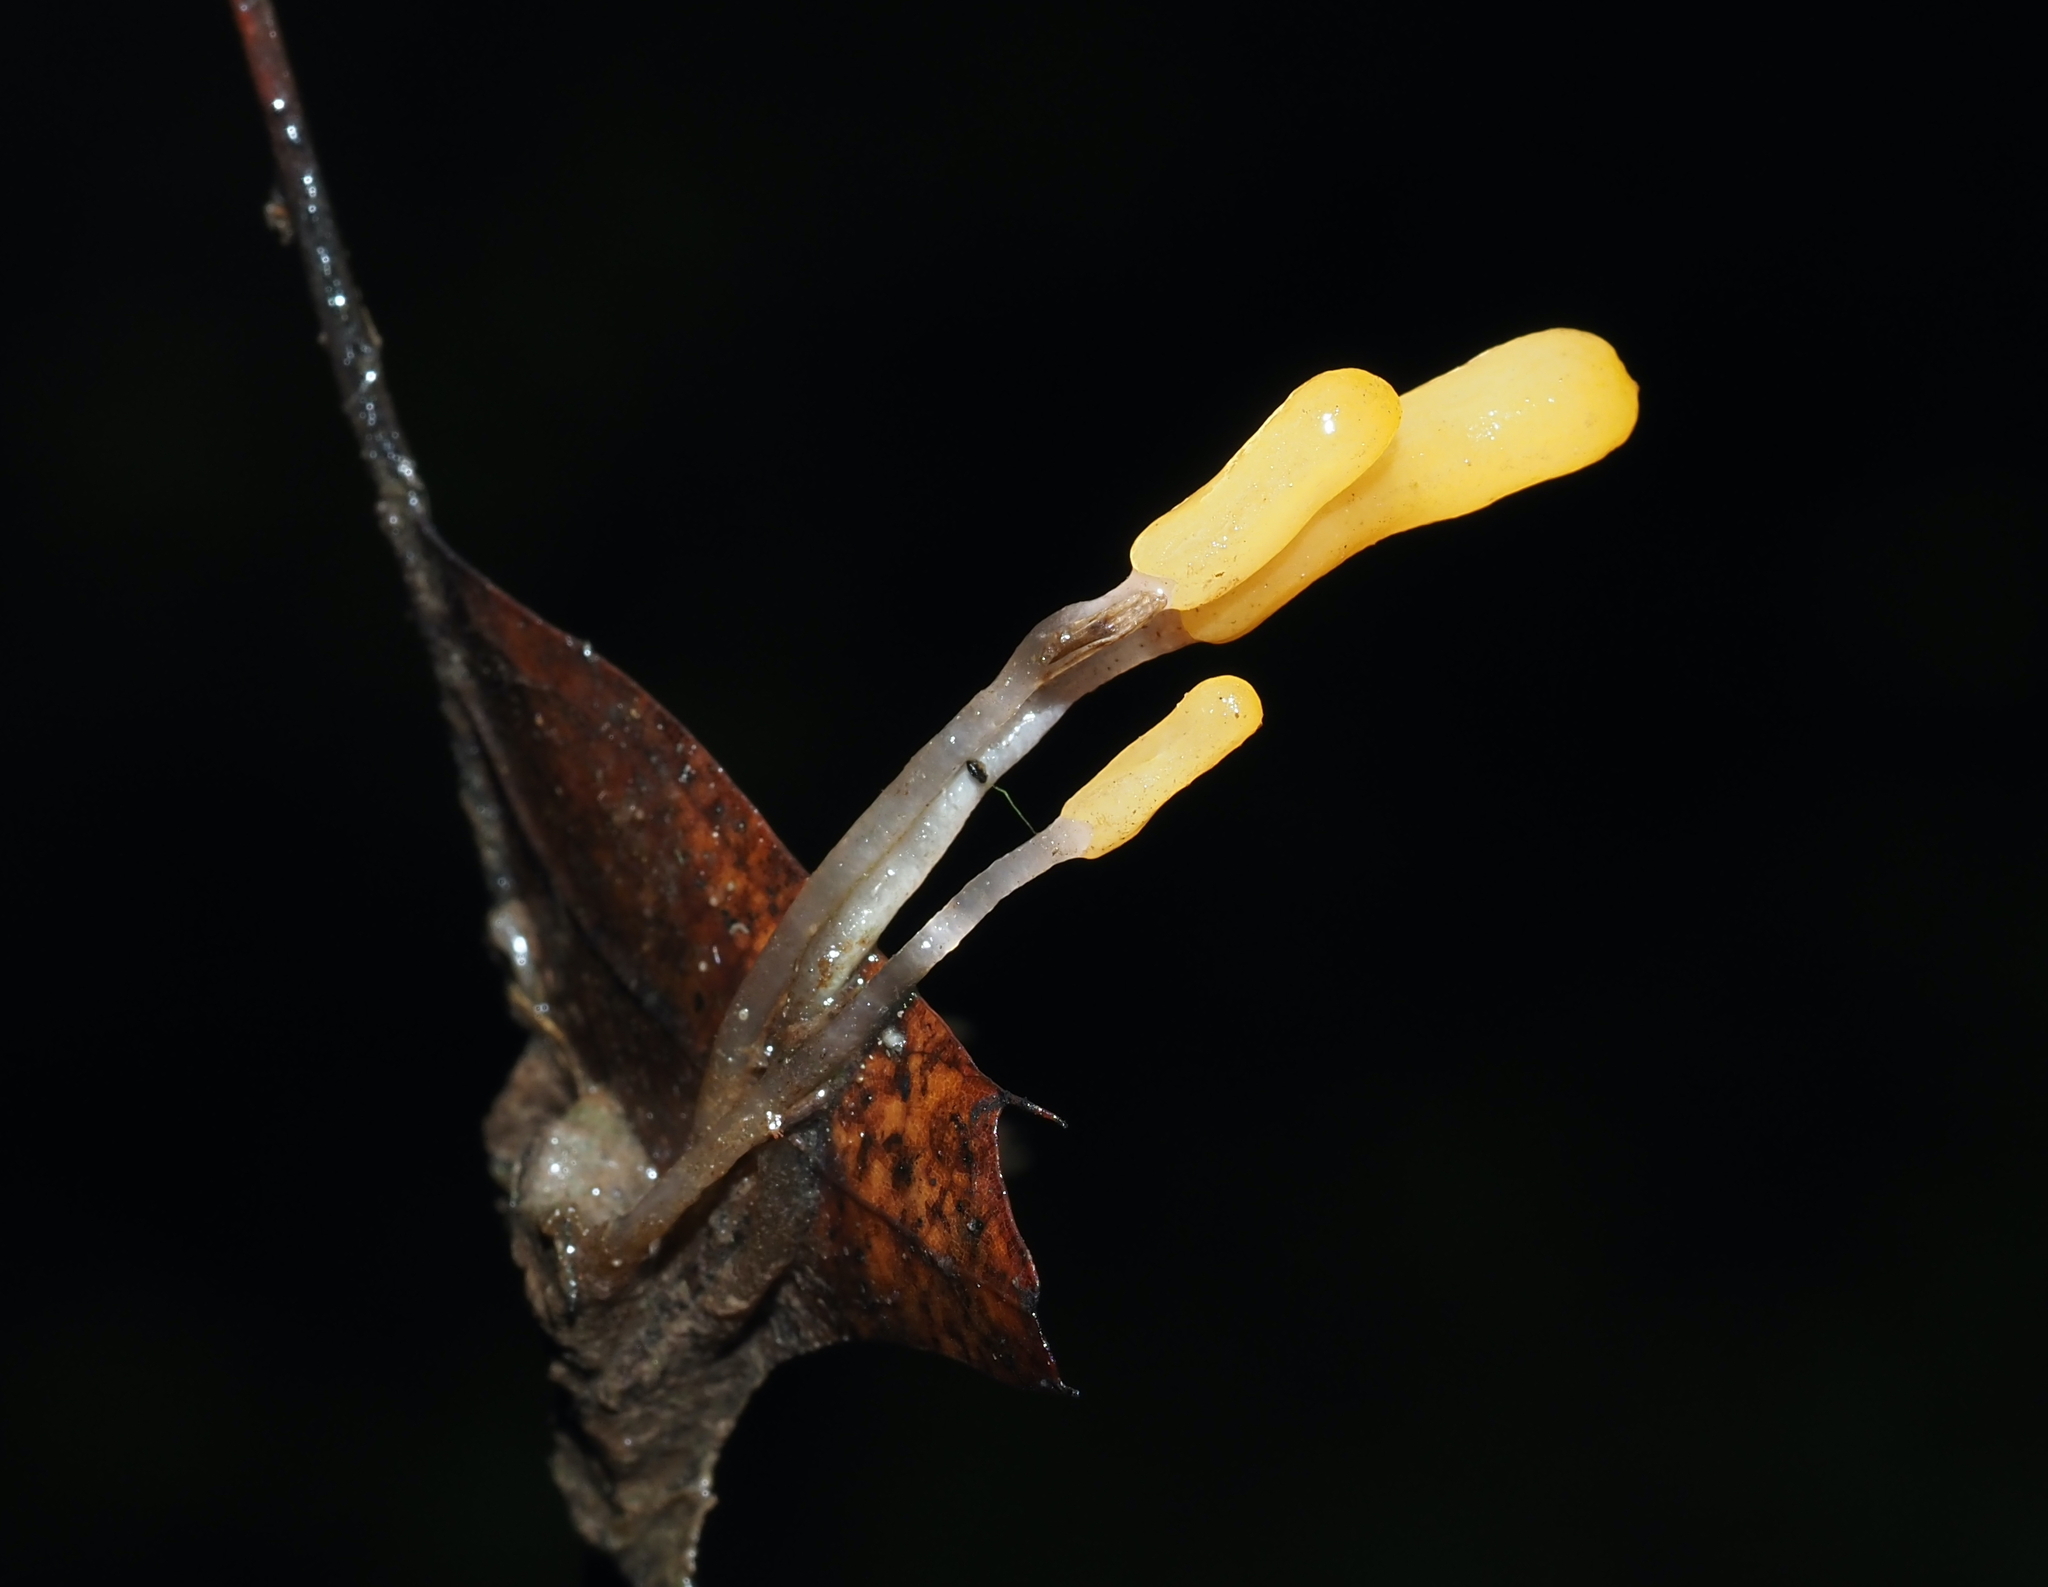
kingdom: Fungi
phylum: Ascomycota
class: Leotiomycetes
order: Helotiales
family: Sclerotiniaceae
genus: Mitrula
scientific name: Mitrula elegans
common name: Swamp beacon
